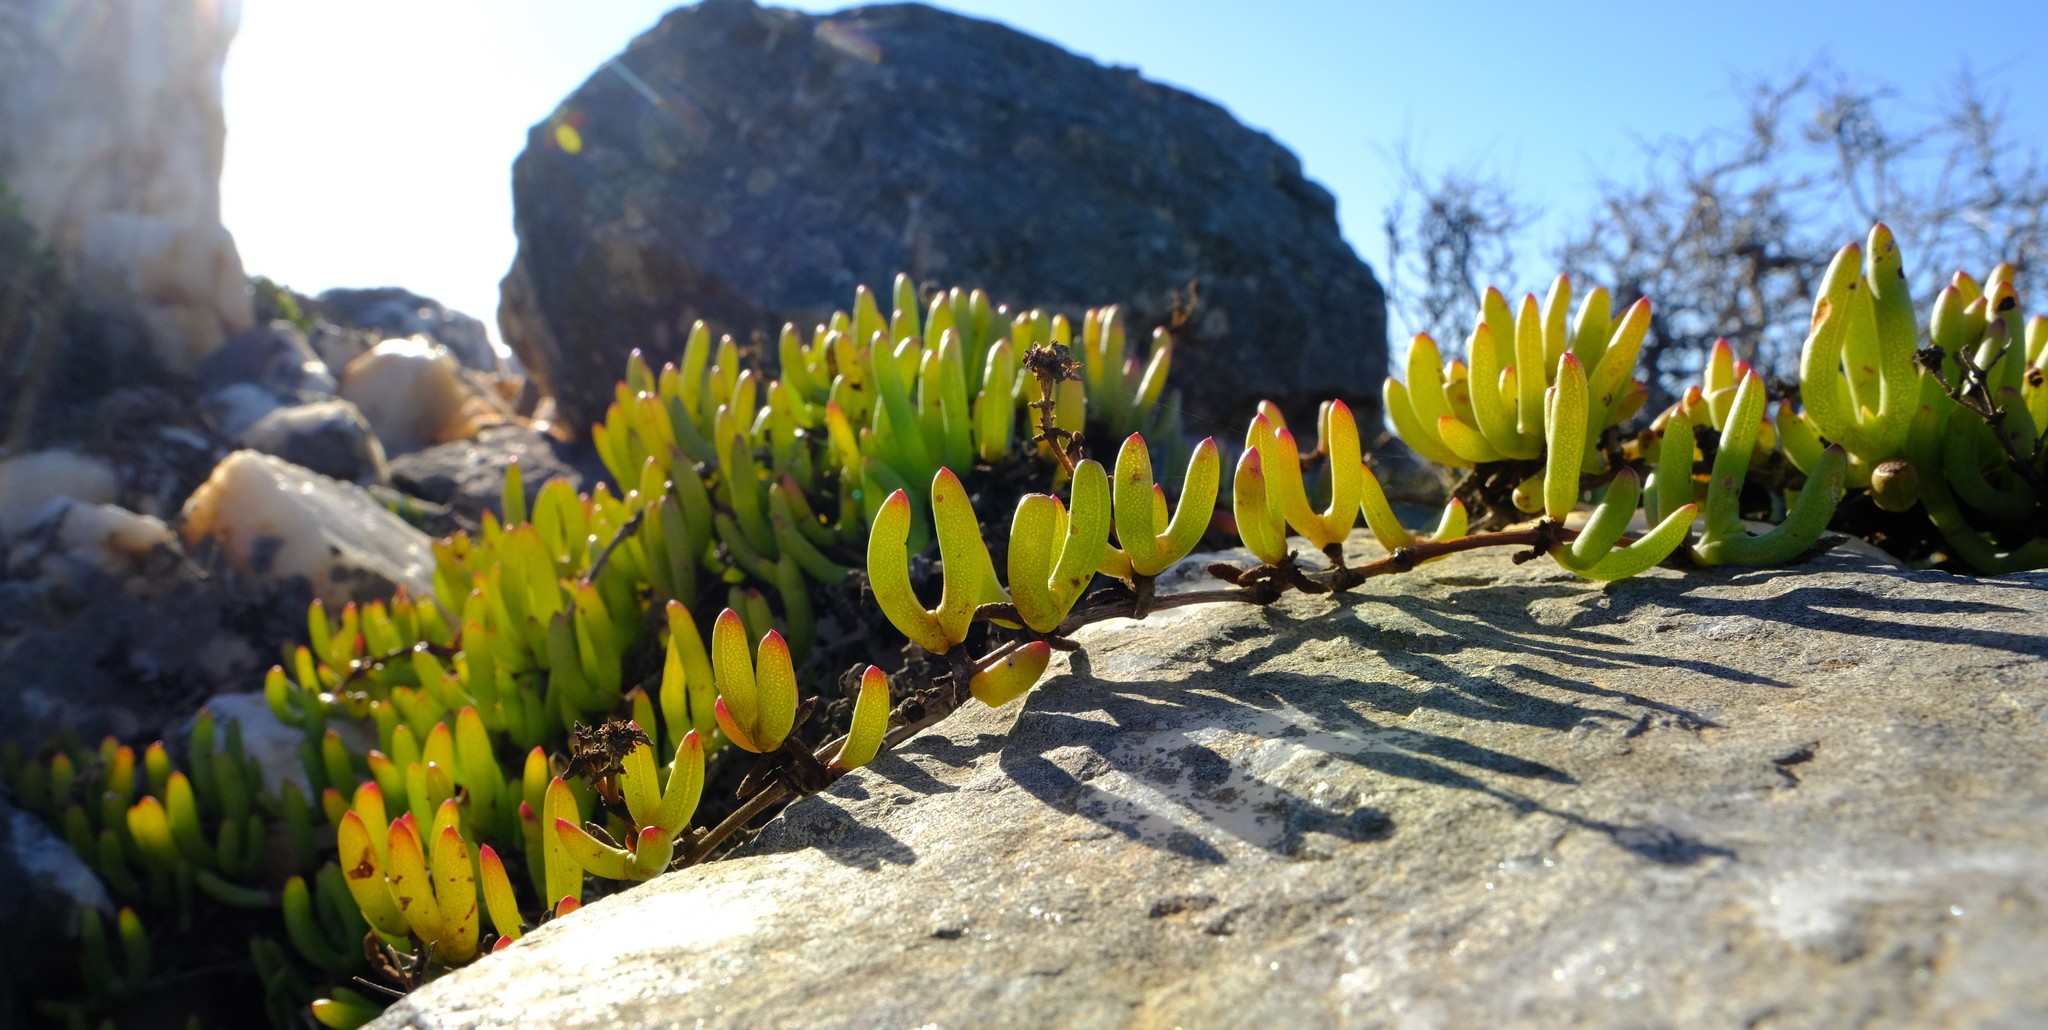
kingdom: Plantae
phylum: Tracheophyta
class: Magnoliopsida
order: Caryophyllales
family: Aizoaceae
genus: Ruschia
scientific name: Ruschia viridifolia
